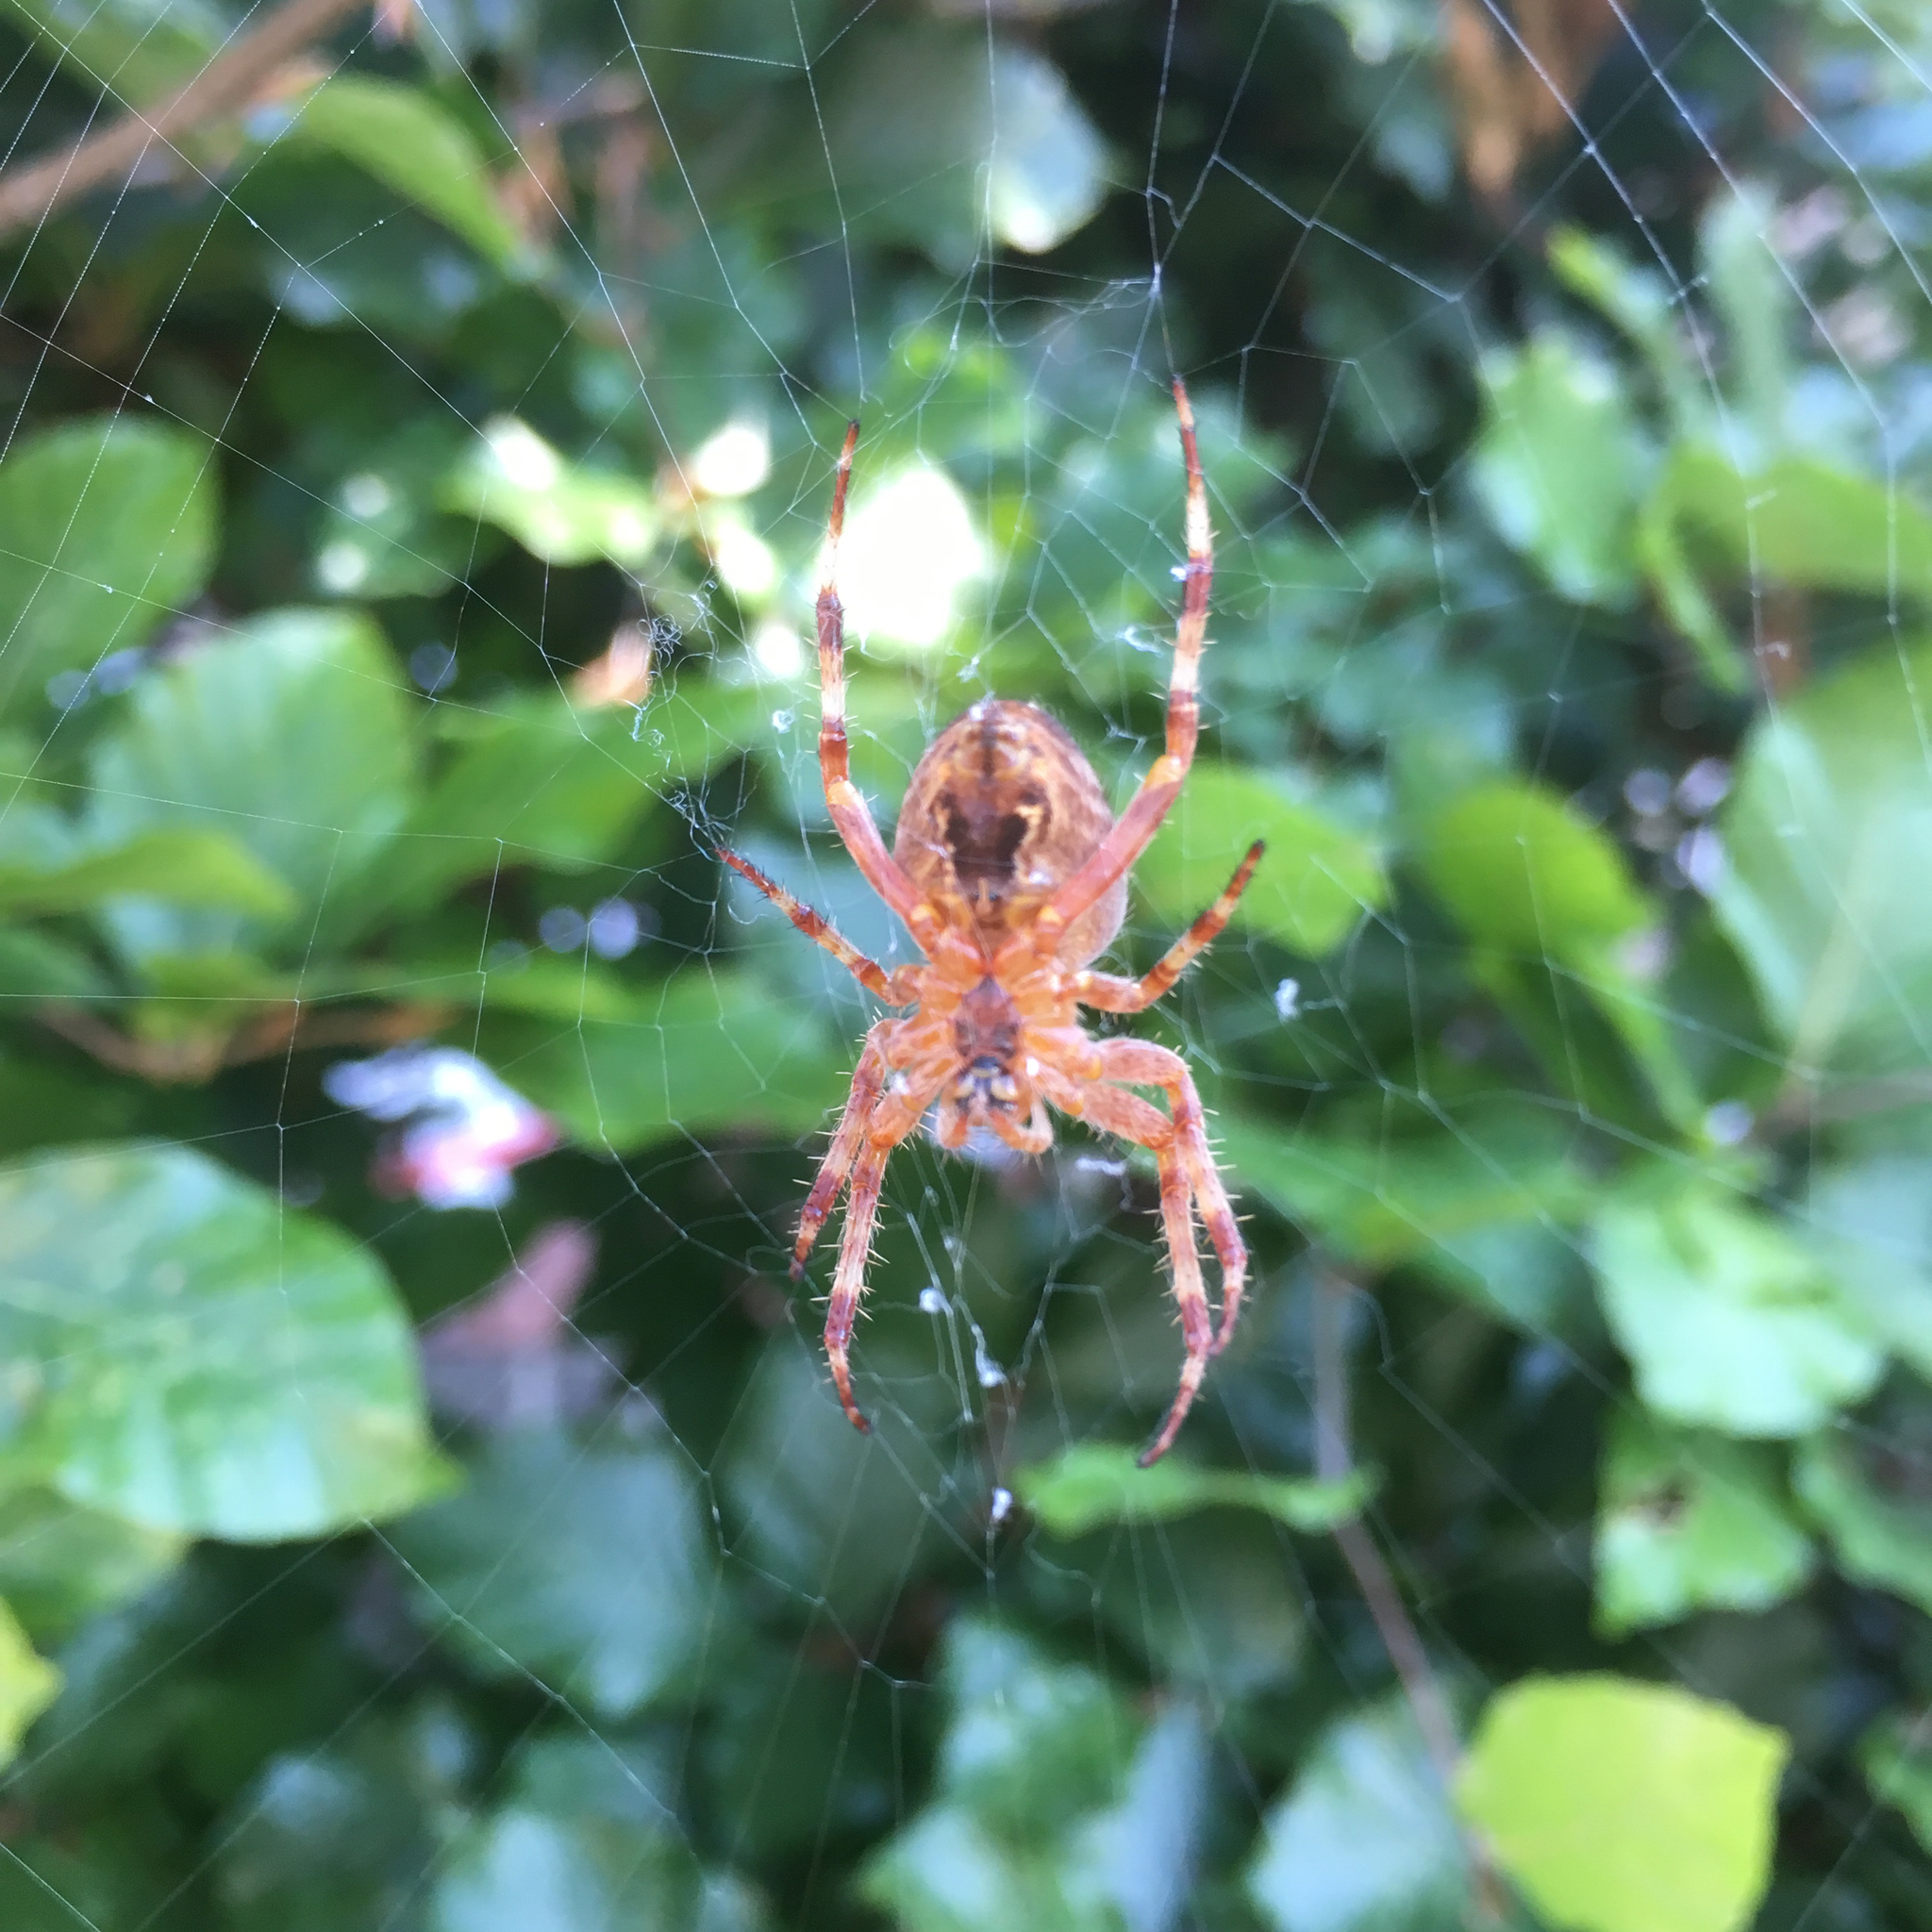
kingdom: Animalia
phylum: Arthropoda
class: Arachnida
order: Araneae
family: Araneidae
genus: Araneus
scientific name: Araneus diadematus
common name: Cross orbweaver
